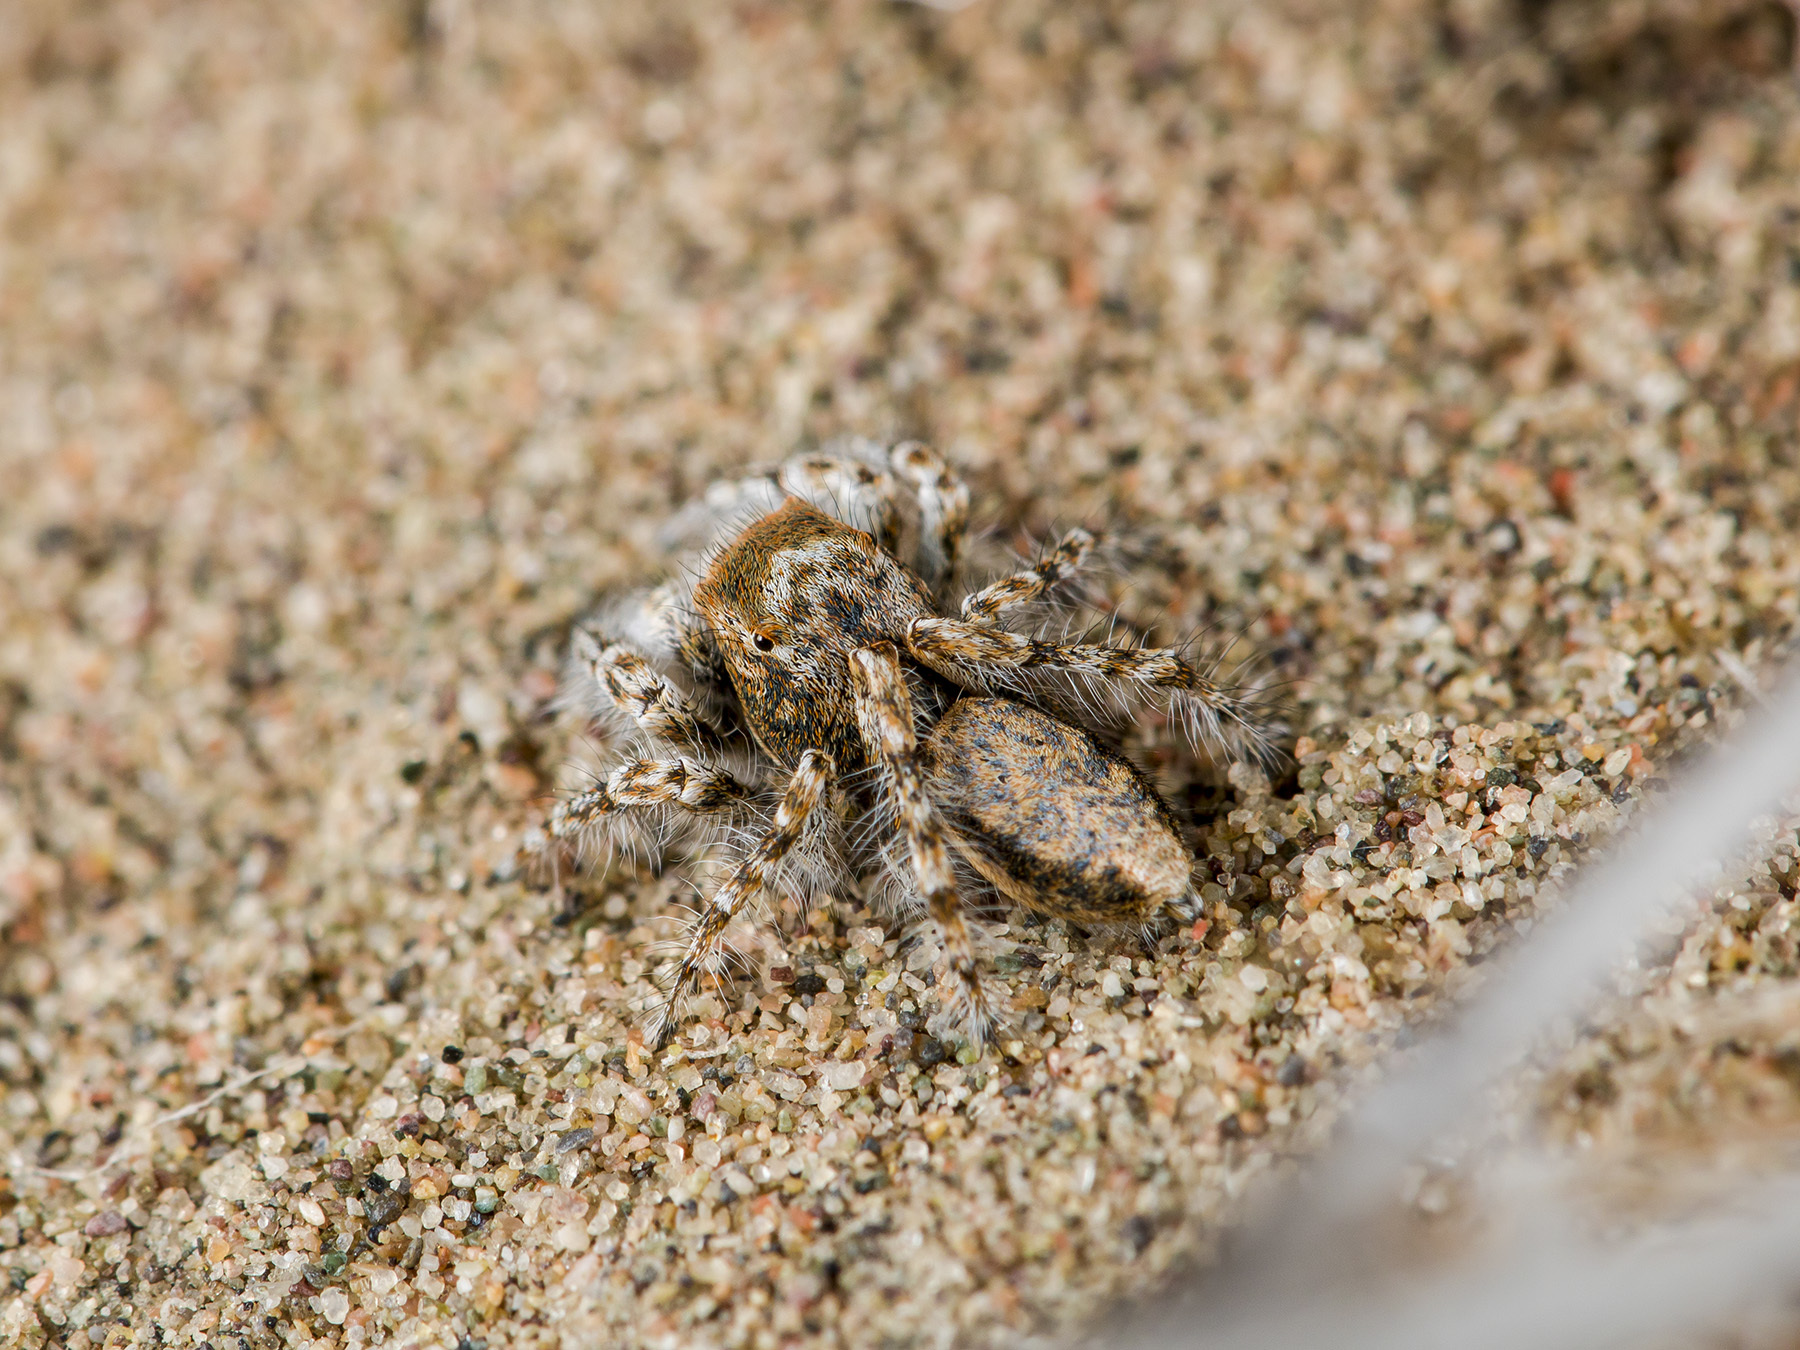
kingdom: Animalia
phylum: Arthropoda
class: Arachnida
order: Araneae
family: Salticidae
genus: Yllenus
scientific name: Yllenus uiguricus
